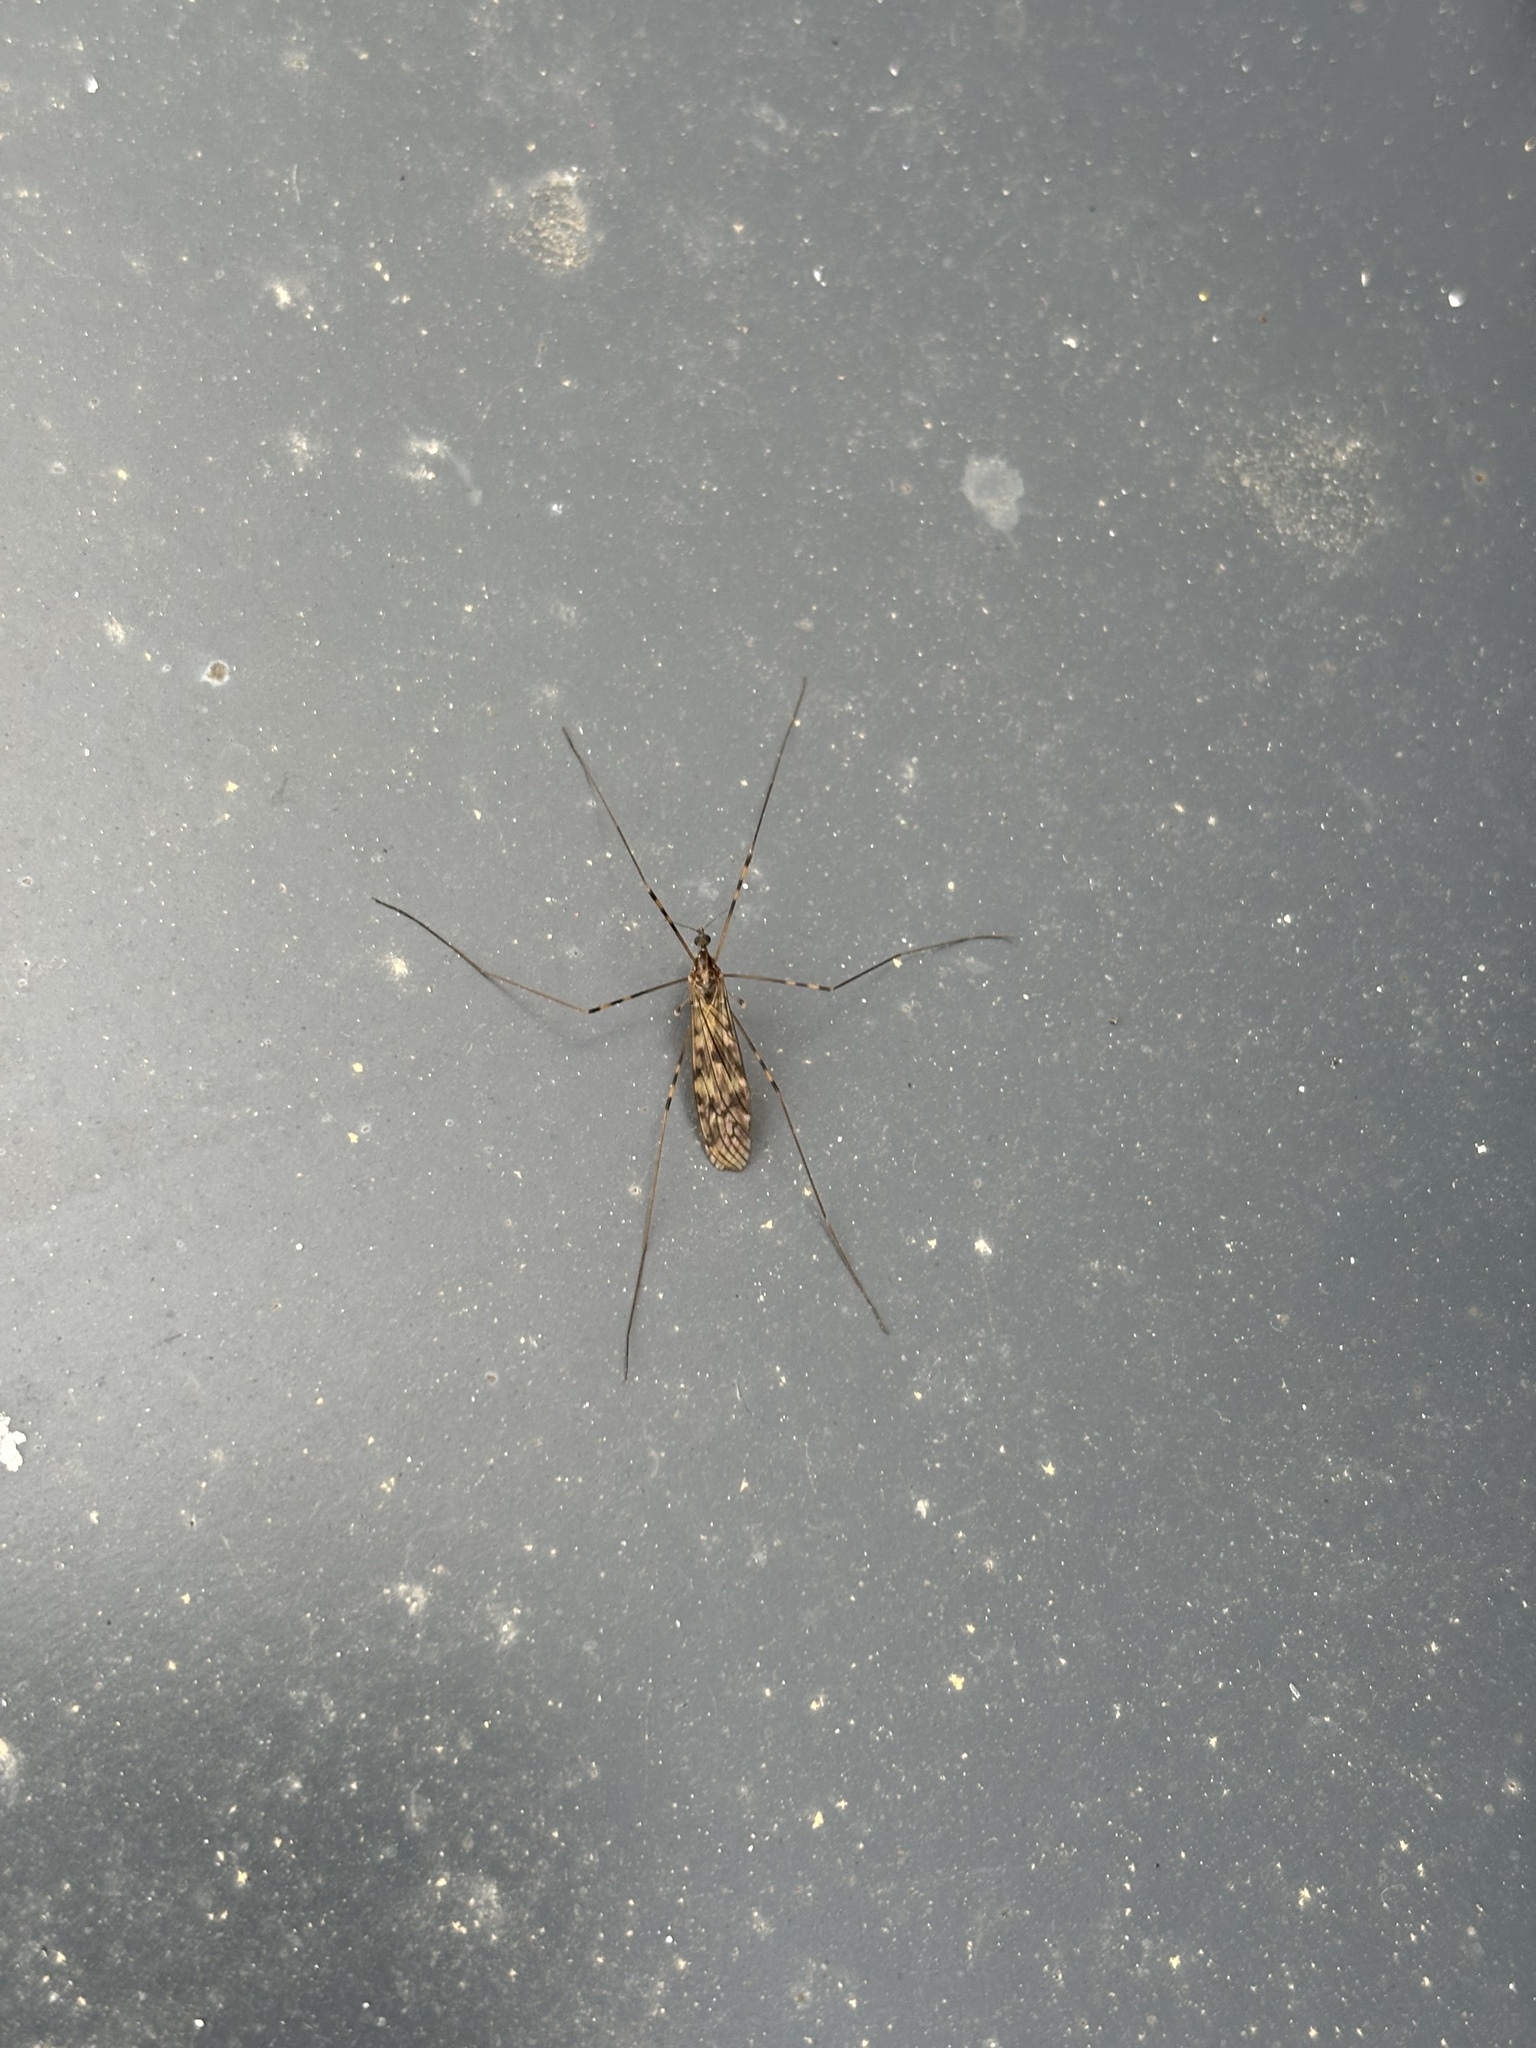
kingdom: Animalia
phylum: Arthropoda
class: Insecta
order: Diptera
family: Limoniidae
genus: Limonia
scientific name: Limonia nubeculosa
